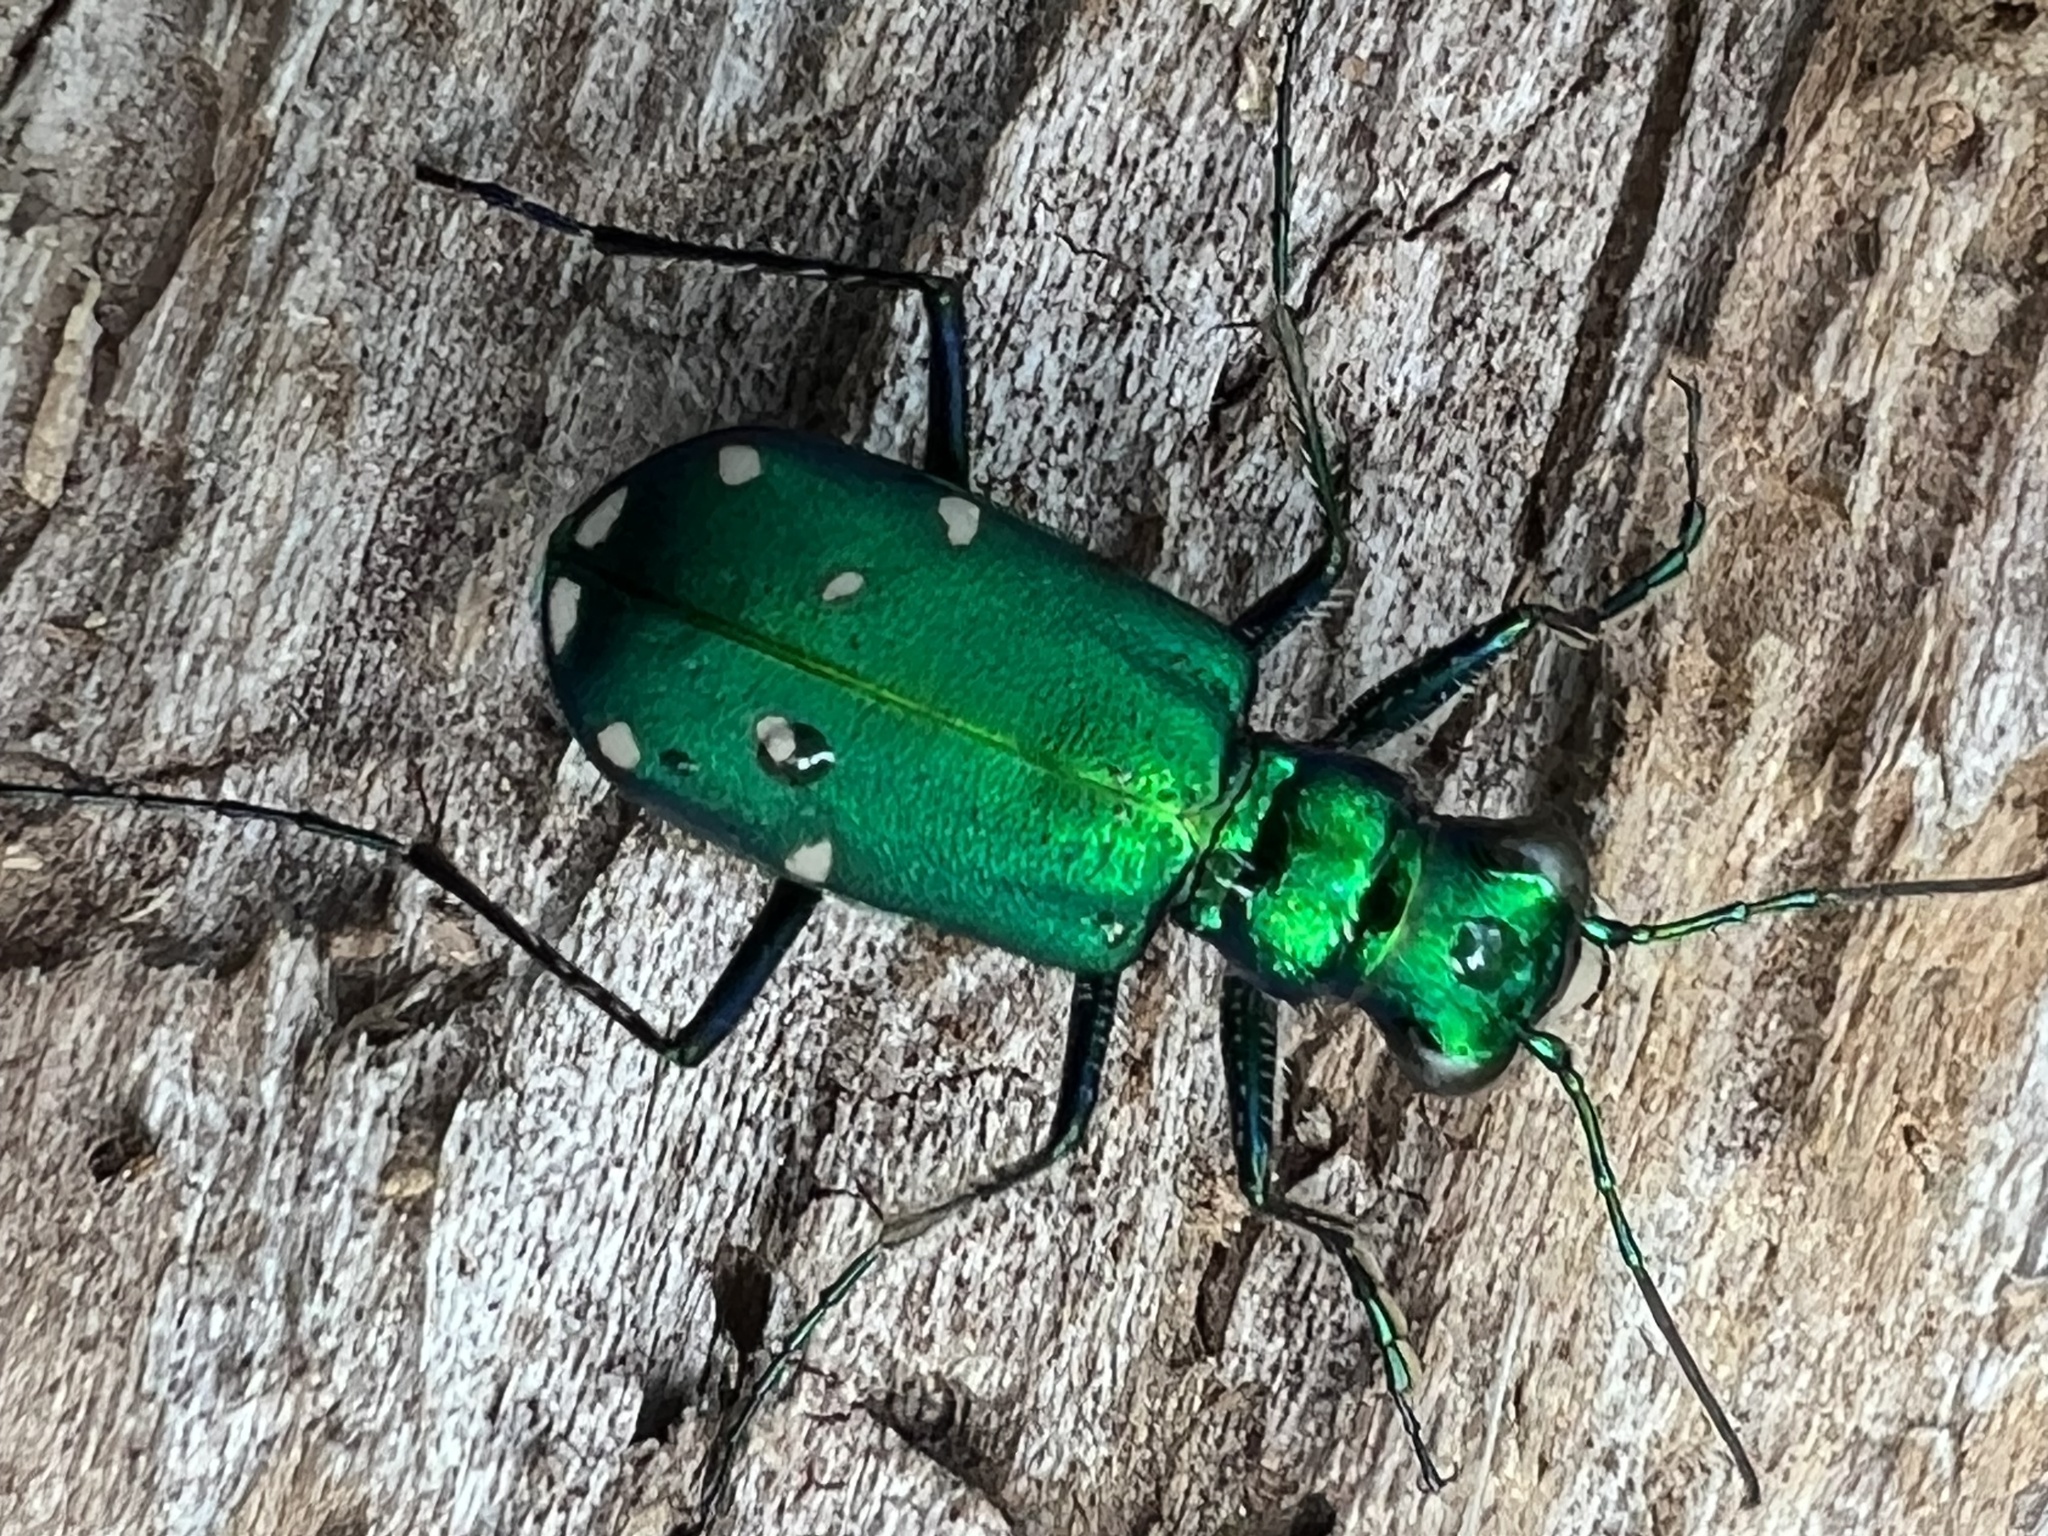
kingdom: Animalia
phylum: Arthropoda
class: Insecta
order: Coleoptera
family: Carabidae
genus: Cicindela
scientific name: Cicindela sexguttata
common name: Six-spotted tiger beetle
